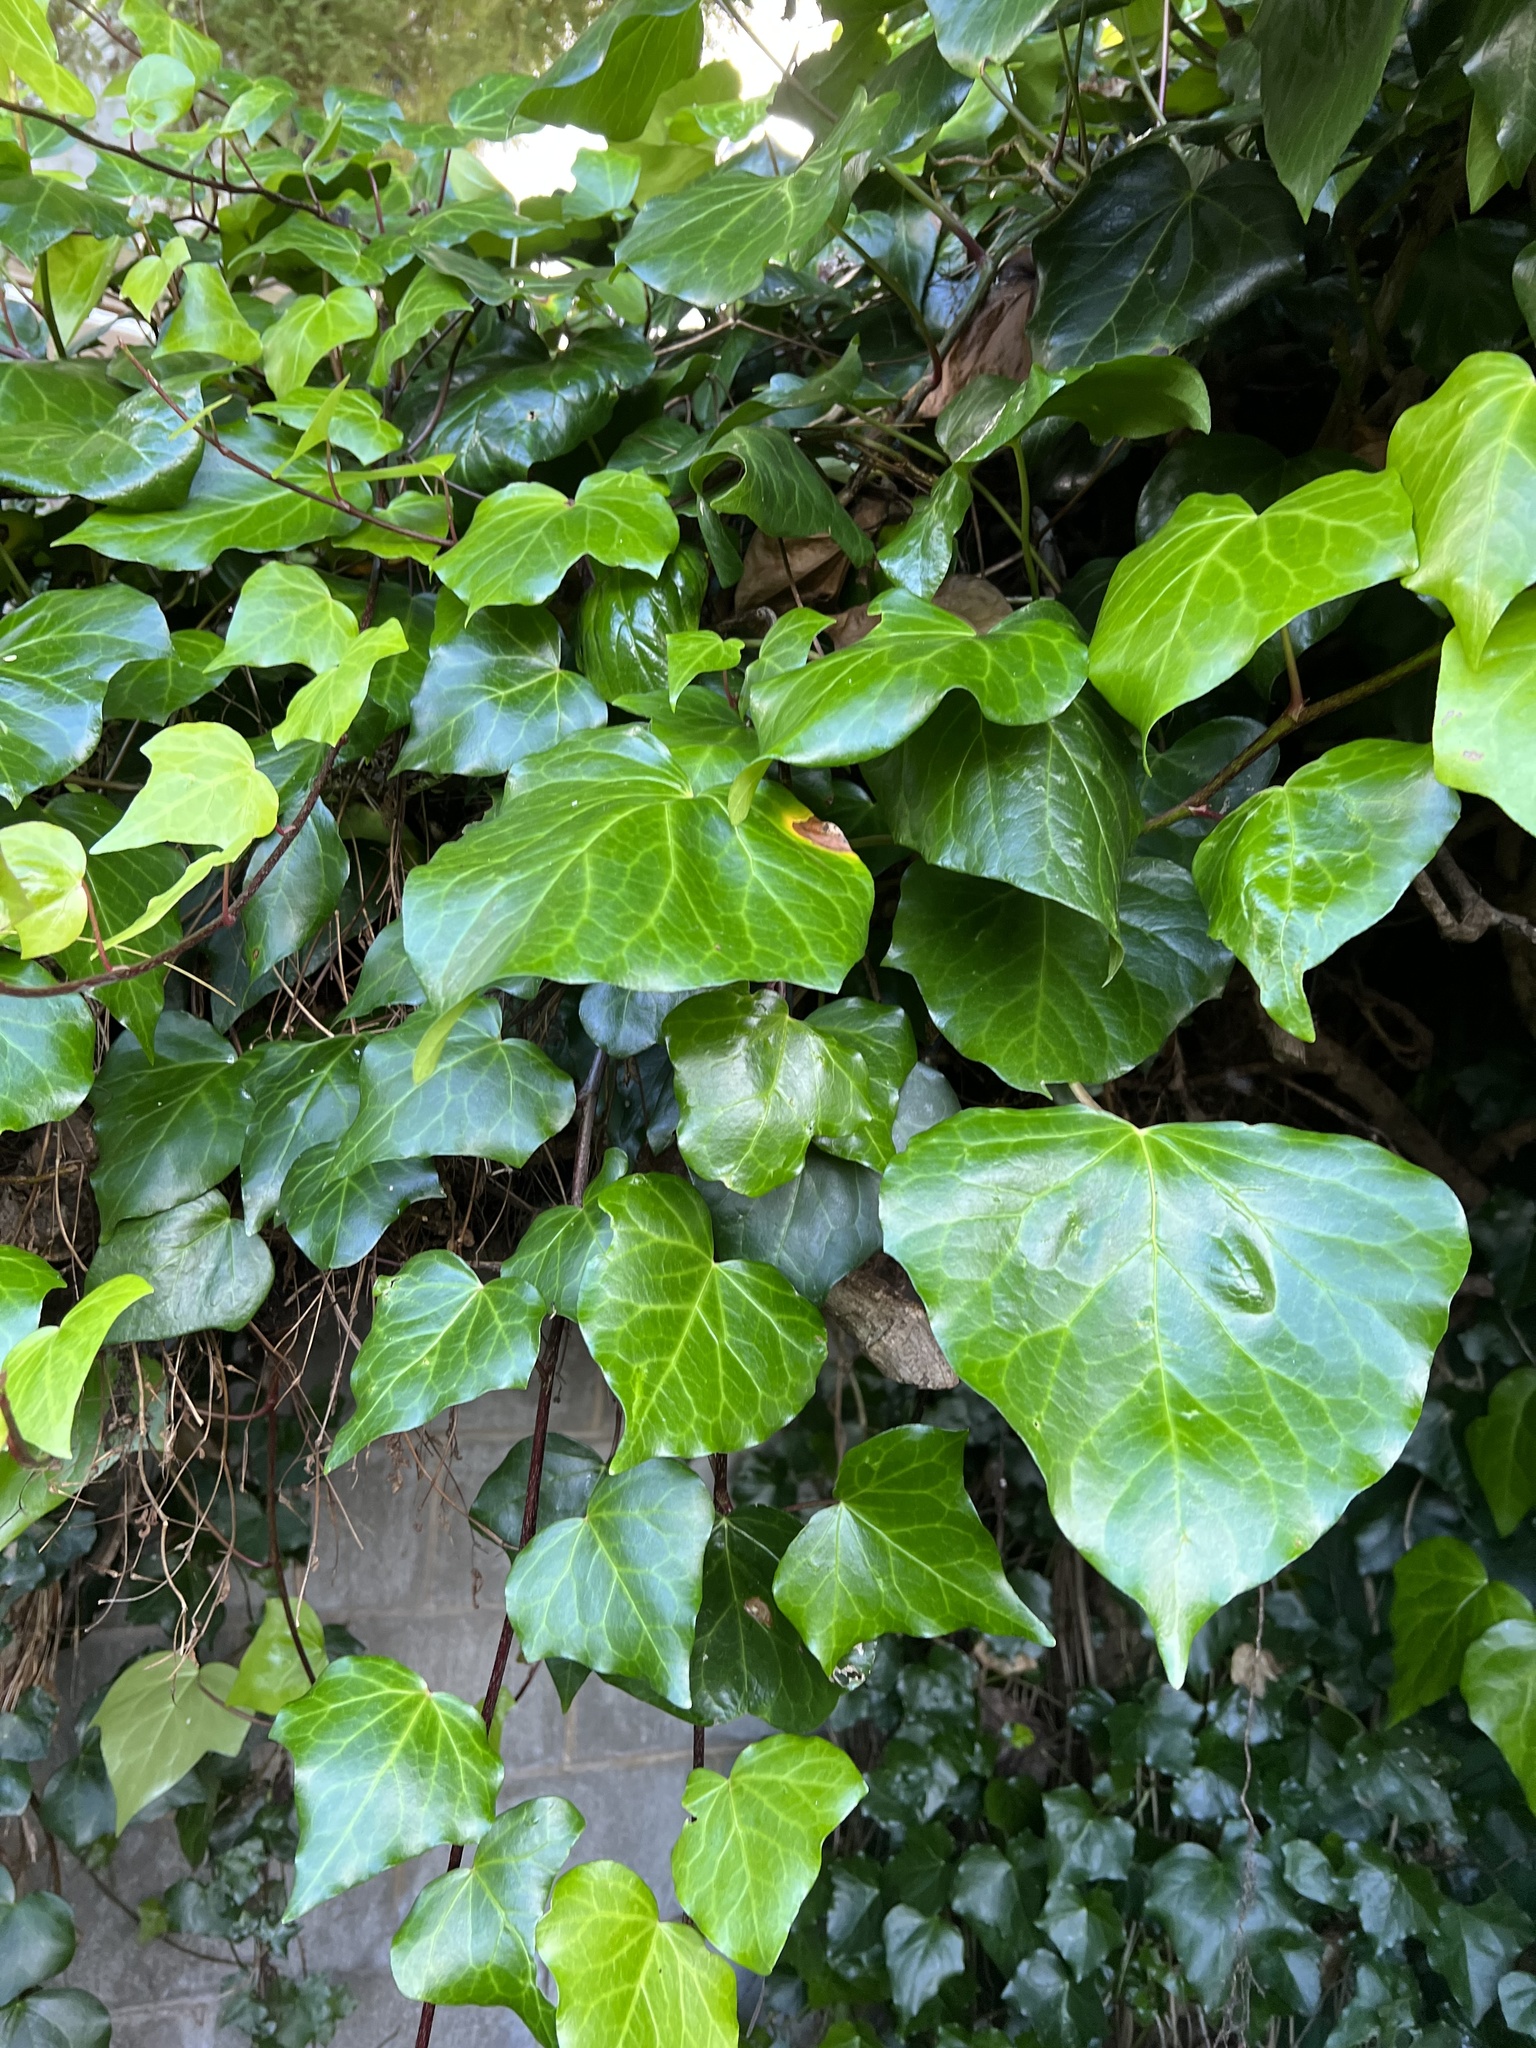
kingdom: Plantae
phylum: Tracheophyta
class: Magnoliopsida
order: Apiales
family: Araliaceae
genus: Hedera
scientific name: Hedera helix
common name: Ivy
